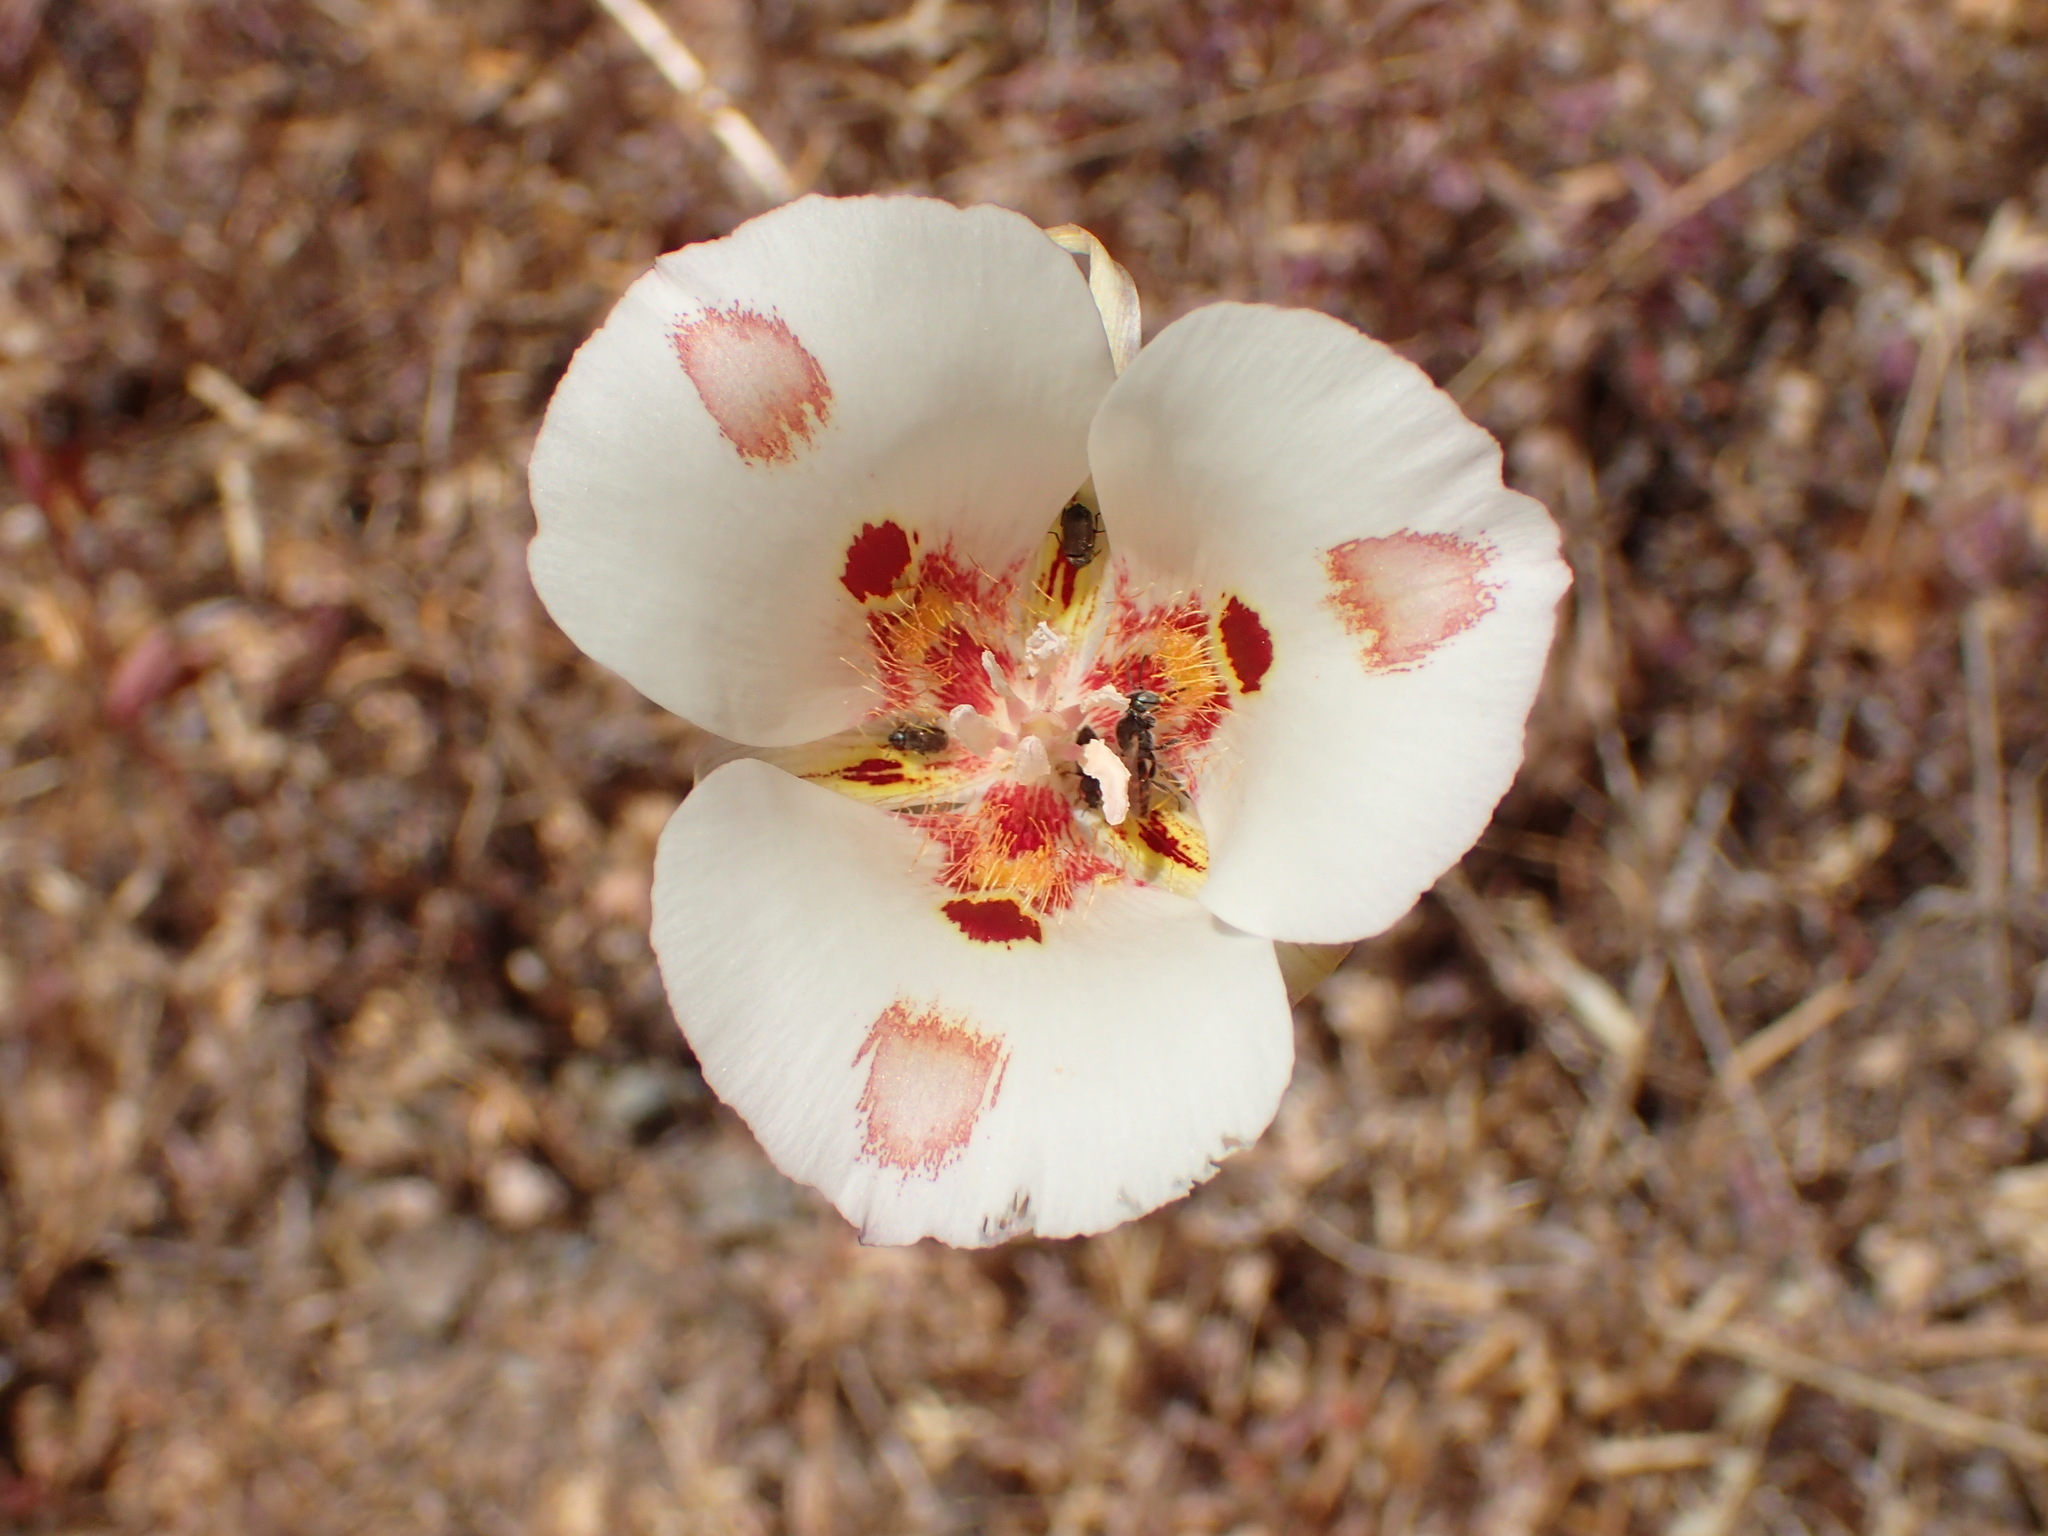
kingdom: Plantae
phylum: Tracheophyta
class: Liliopsida
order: Liliales
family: Liliaceae
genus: Calochortus
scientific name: Calochortus venustus
